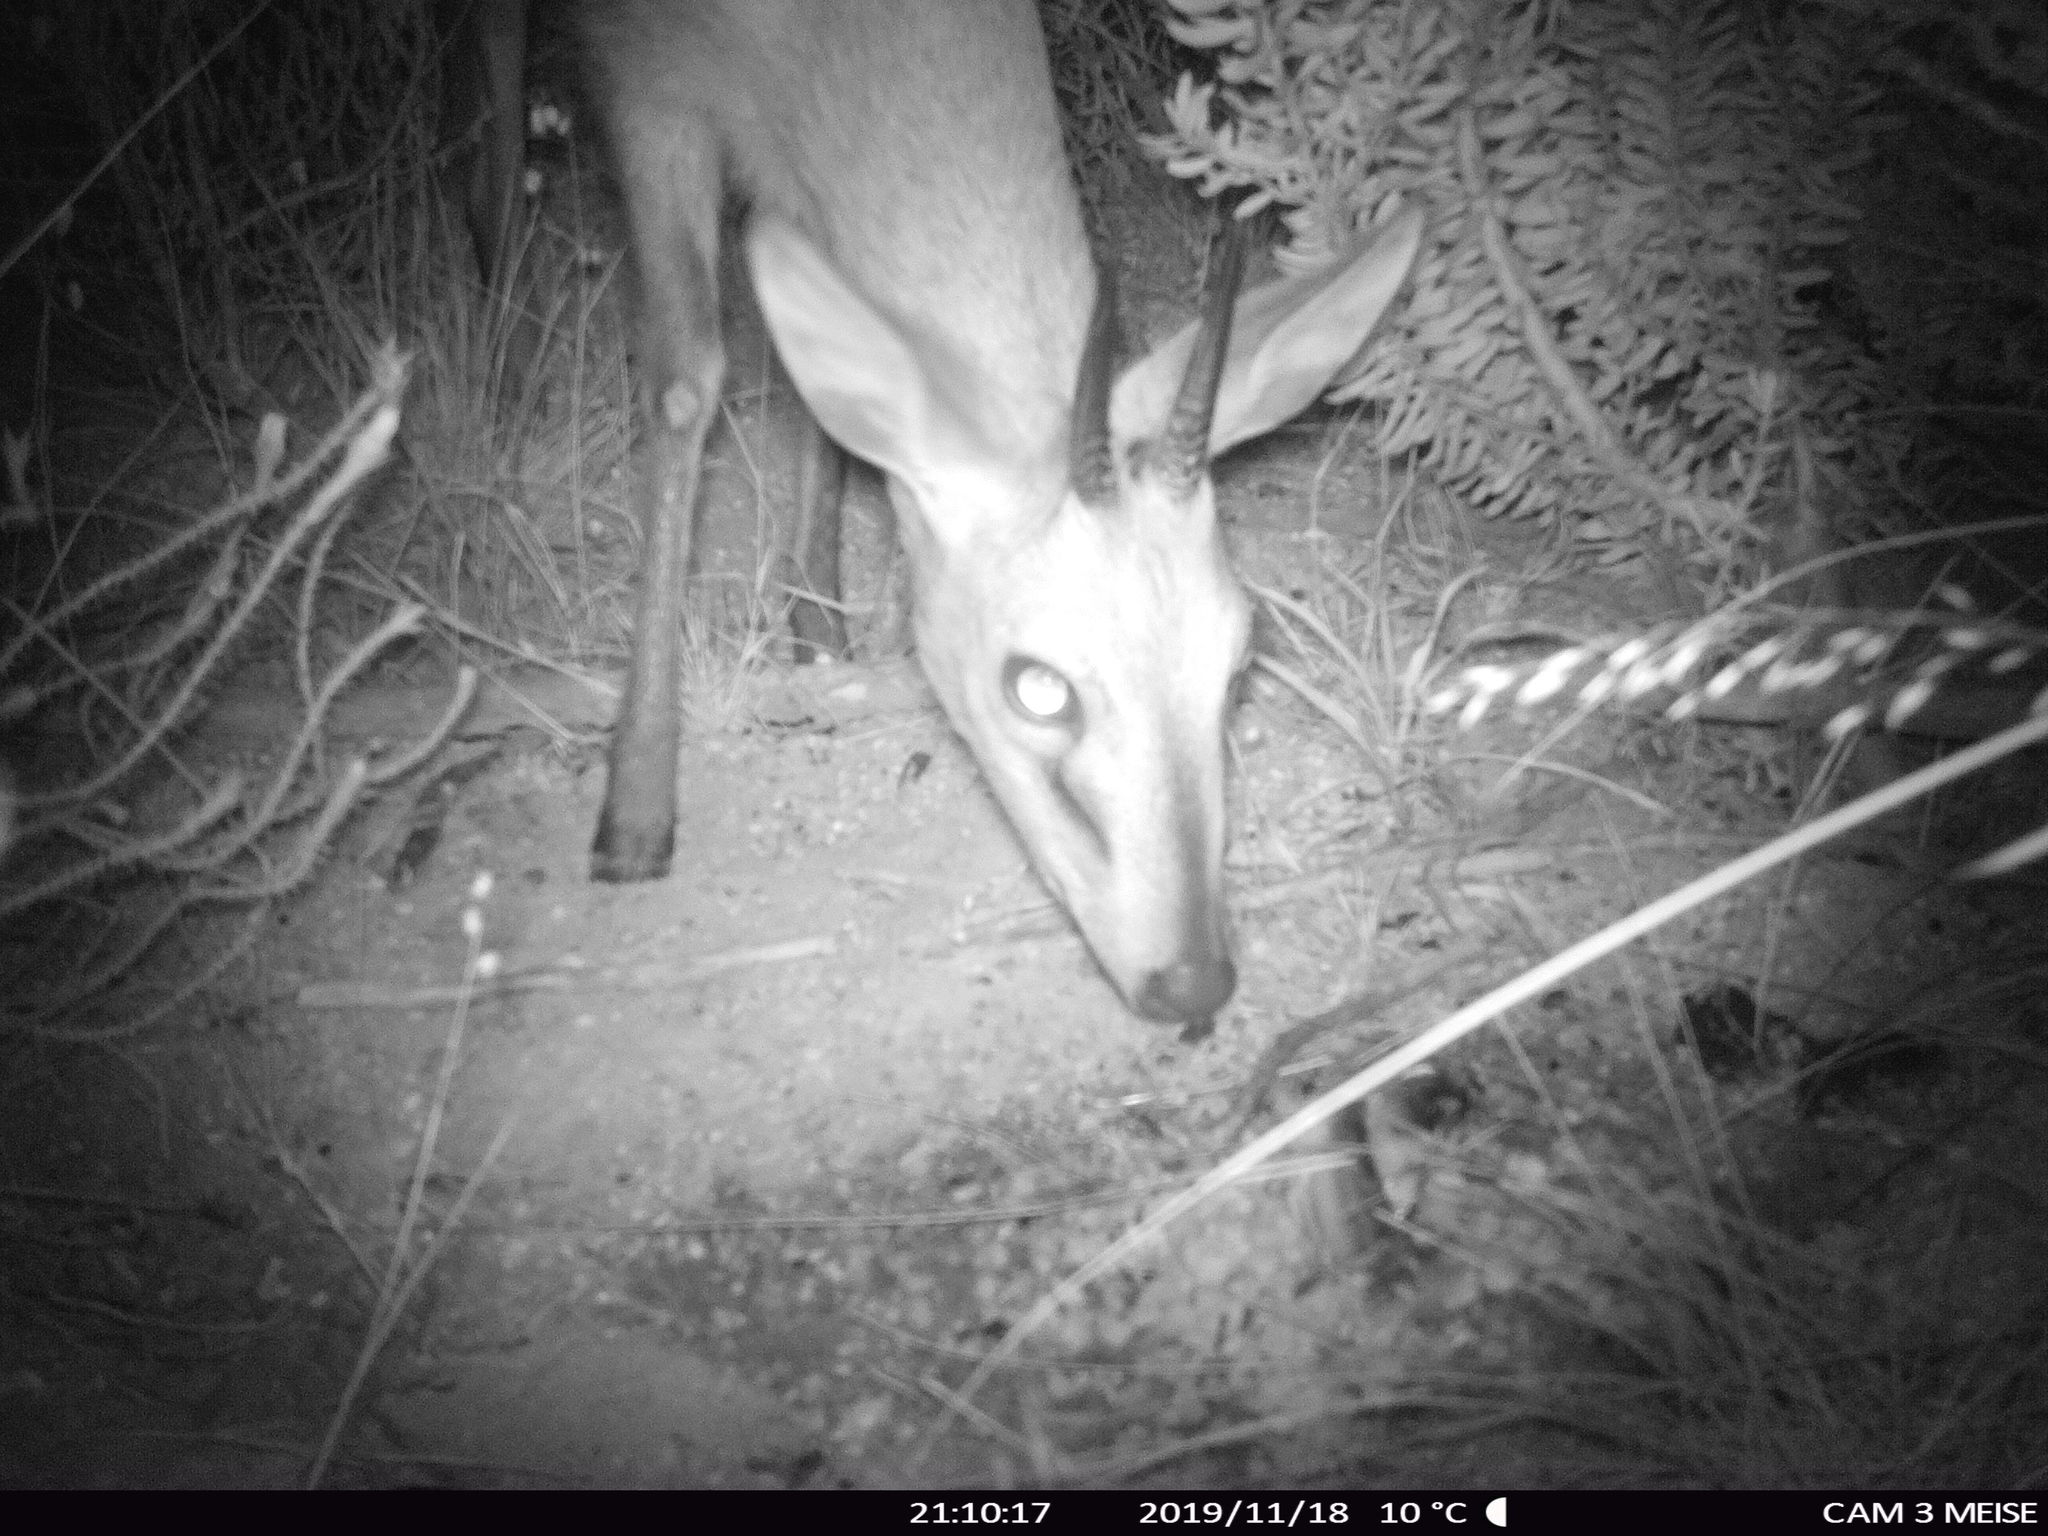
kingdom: Animalia
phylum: Chordata
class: Mammalia
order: Artiodactyla
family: Bovidae
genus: Sylvicapra
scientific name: Sylvicapra grimmia
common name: Bush duiker
